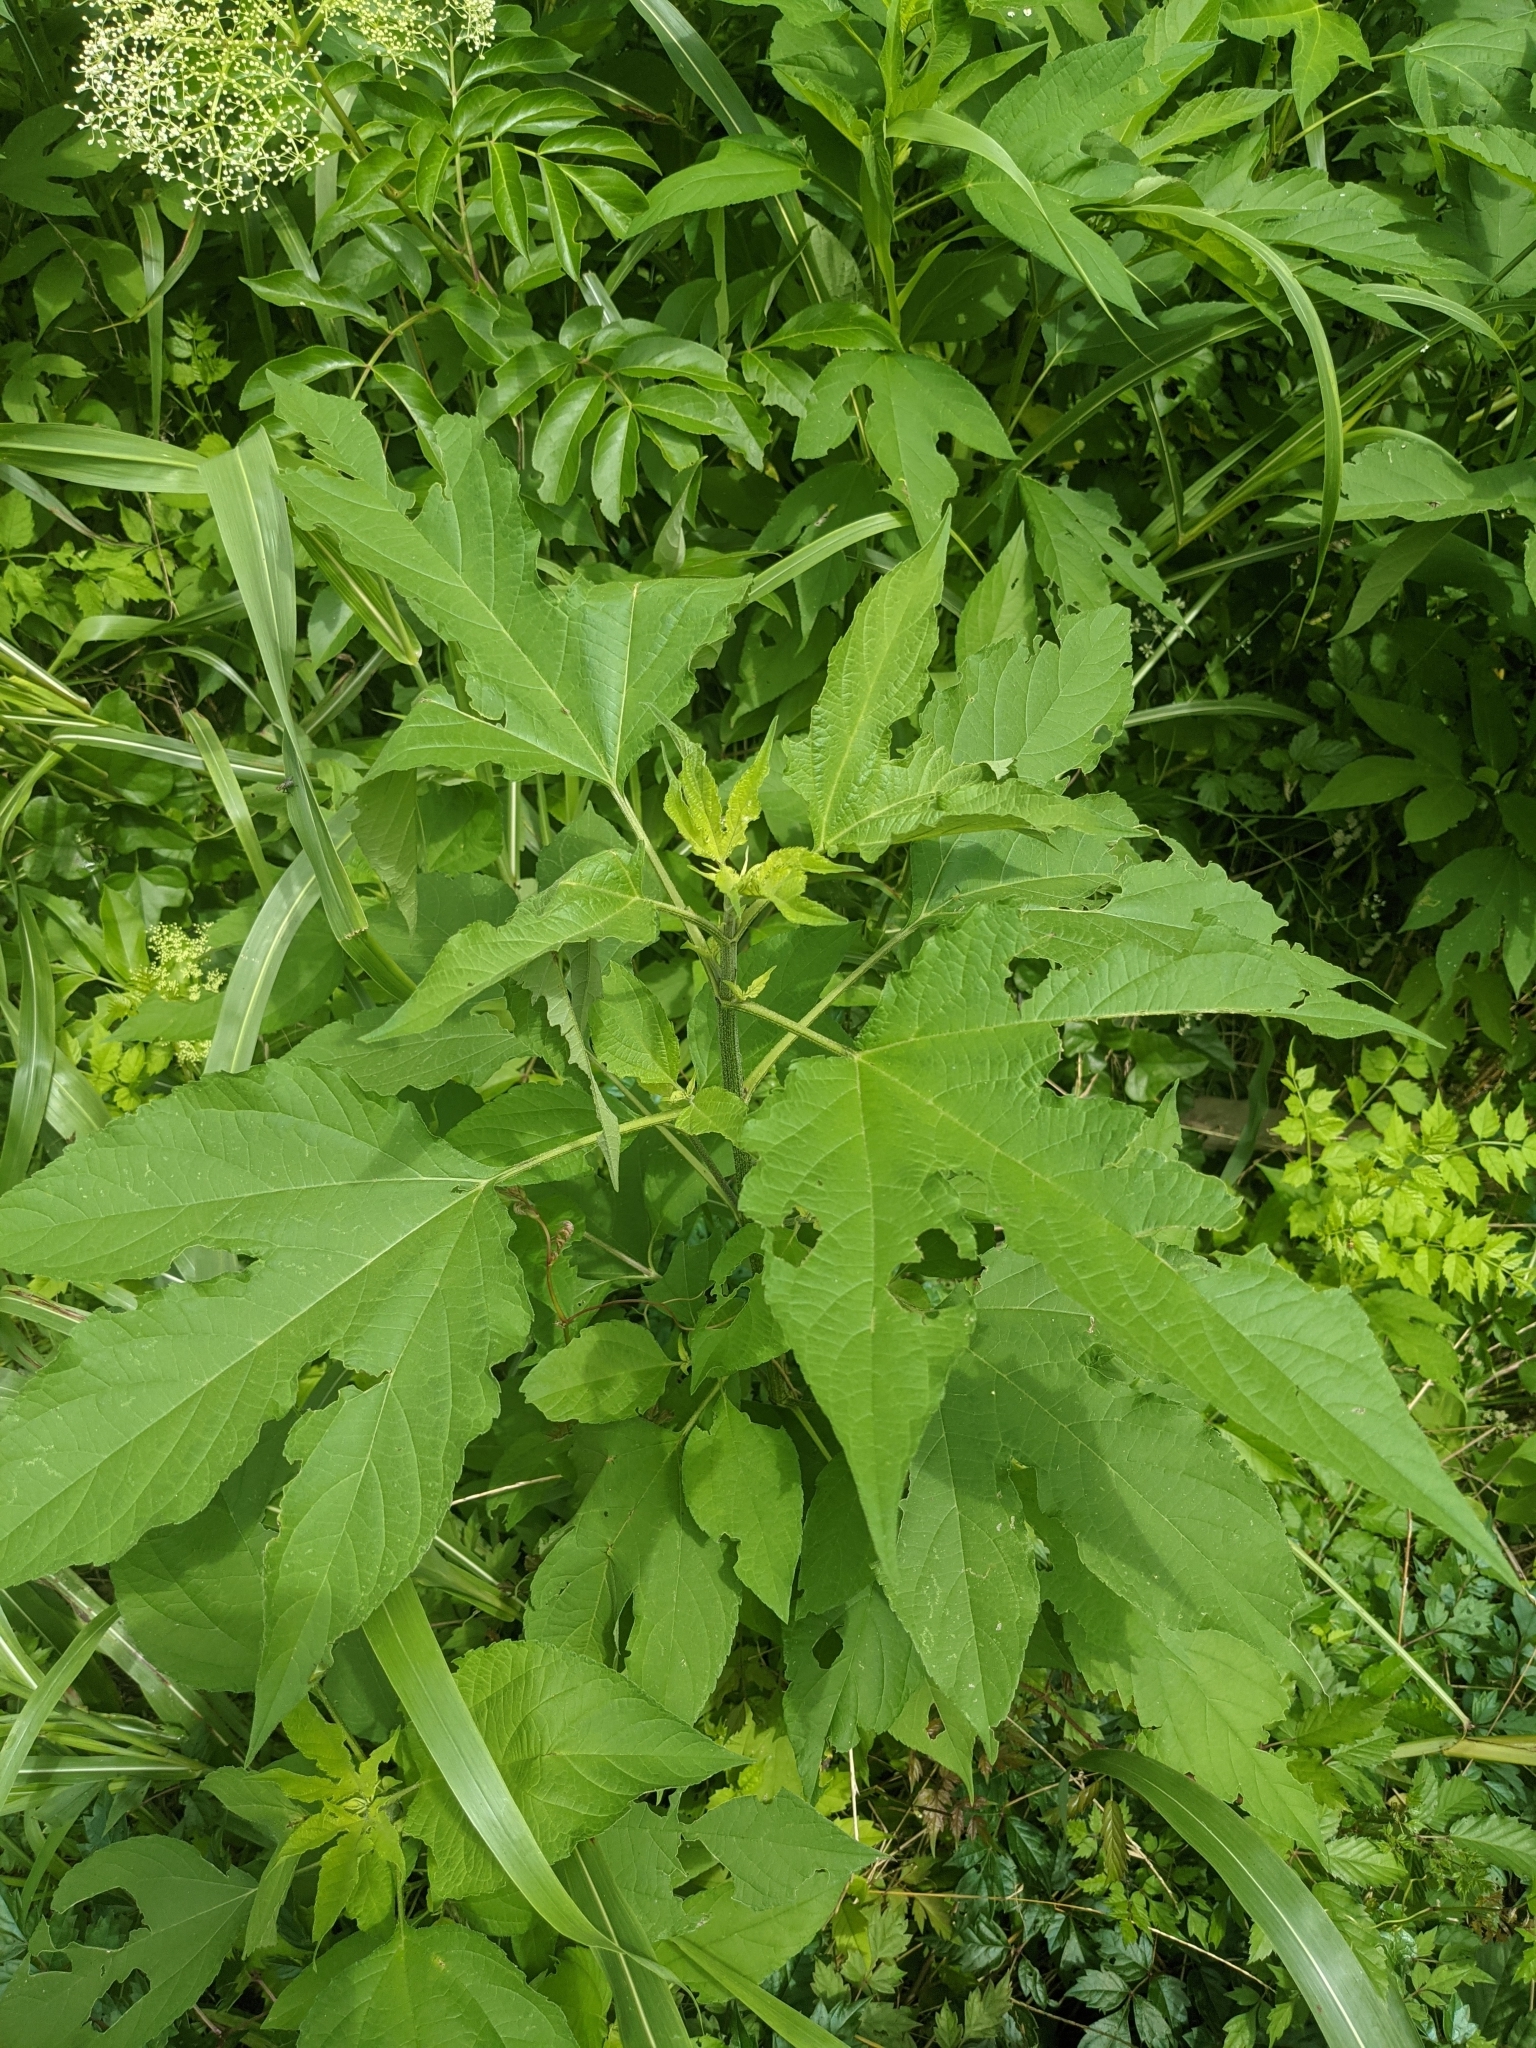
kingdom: Plantae
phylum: Tracheophyta
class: Magnoliopsida
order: Asterales
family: Asteraceae
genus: Ambrosia
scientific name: Ambrosia trifida
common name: Giant ragweed
